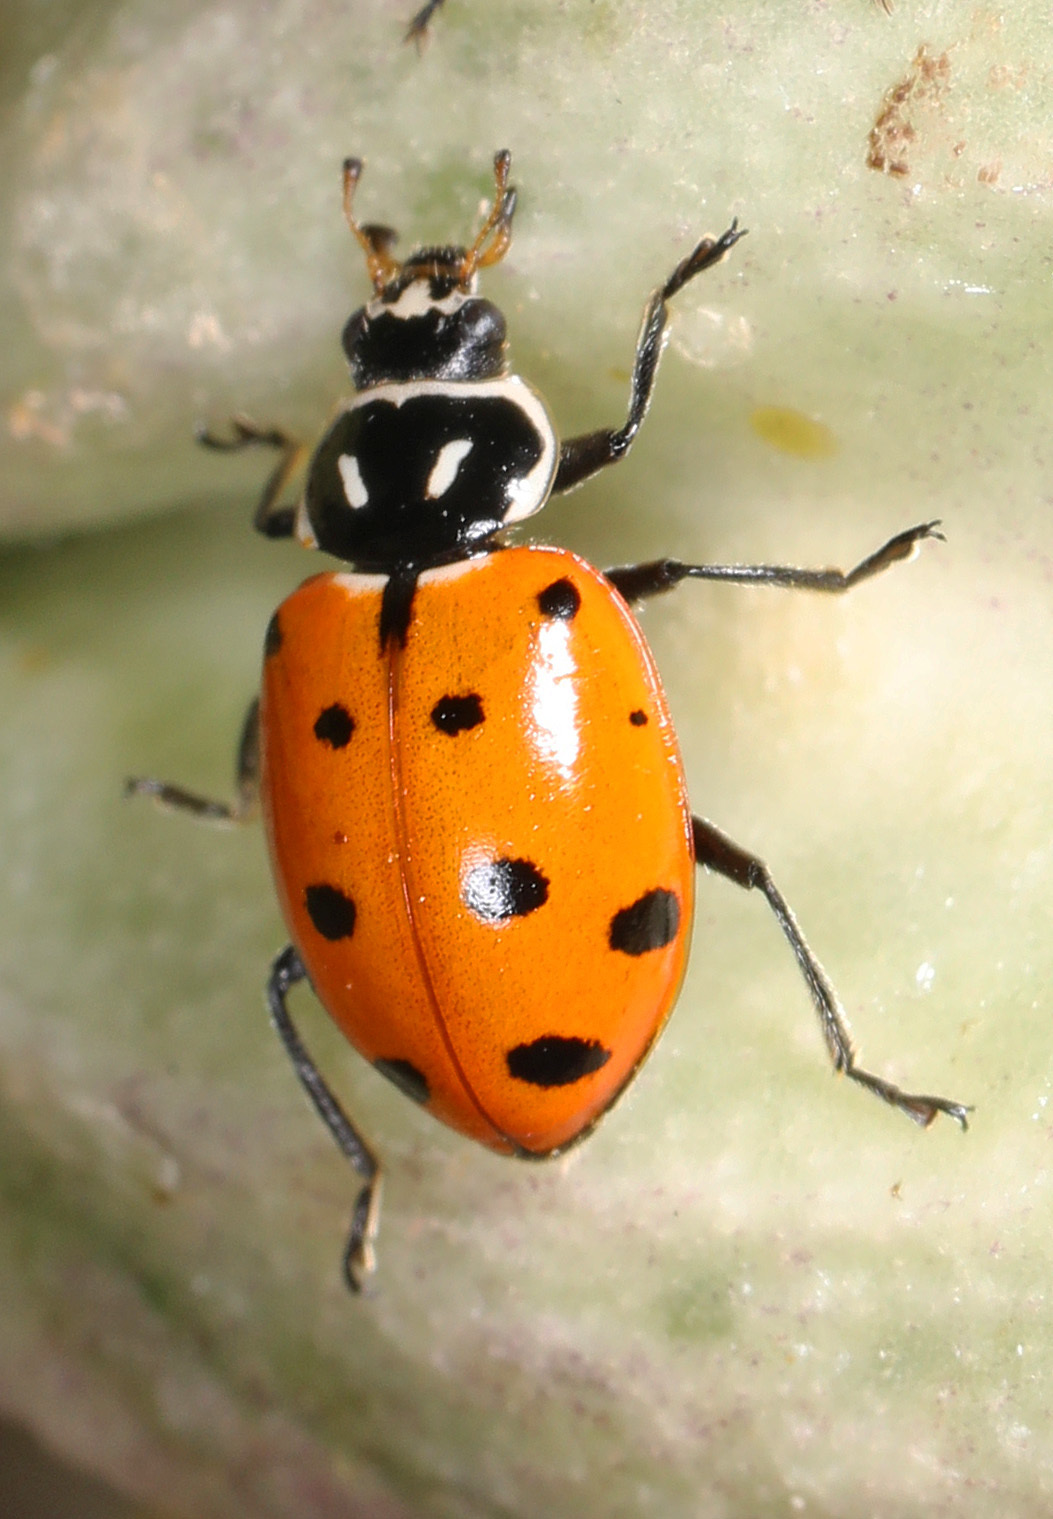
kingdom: Animalia
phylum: Arthropoda
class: Insecta
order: Coleoptera
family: Coccinellidae
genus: Hippodamia
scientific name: Hippodamia convergens
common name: Convergent lady beetle
